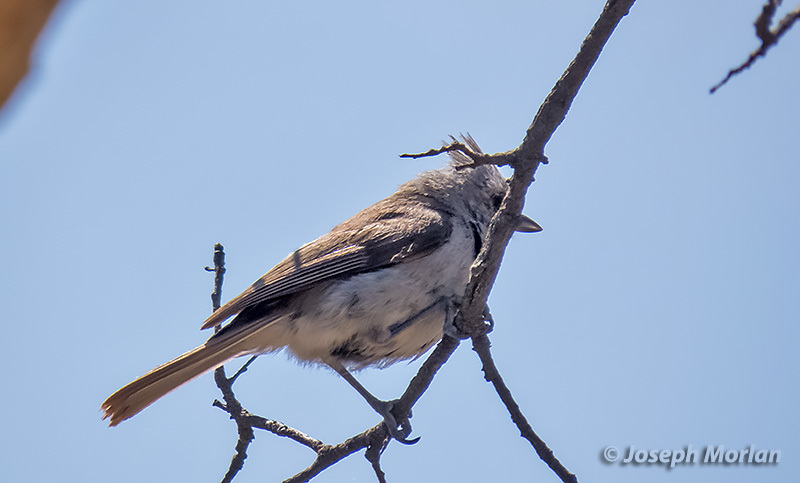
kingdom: Animalia
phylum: Chordata
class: Aves
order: Passeriformes
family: Paridae
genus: Baeolophus
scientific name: Baeolophus inornatus
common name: Oak titmouse
